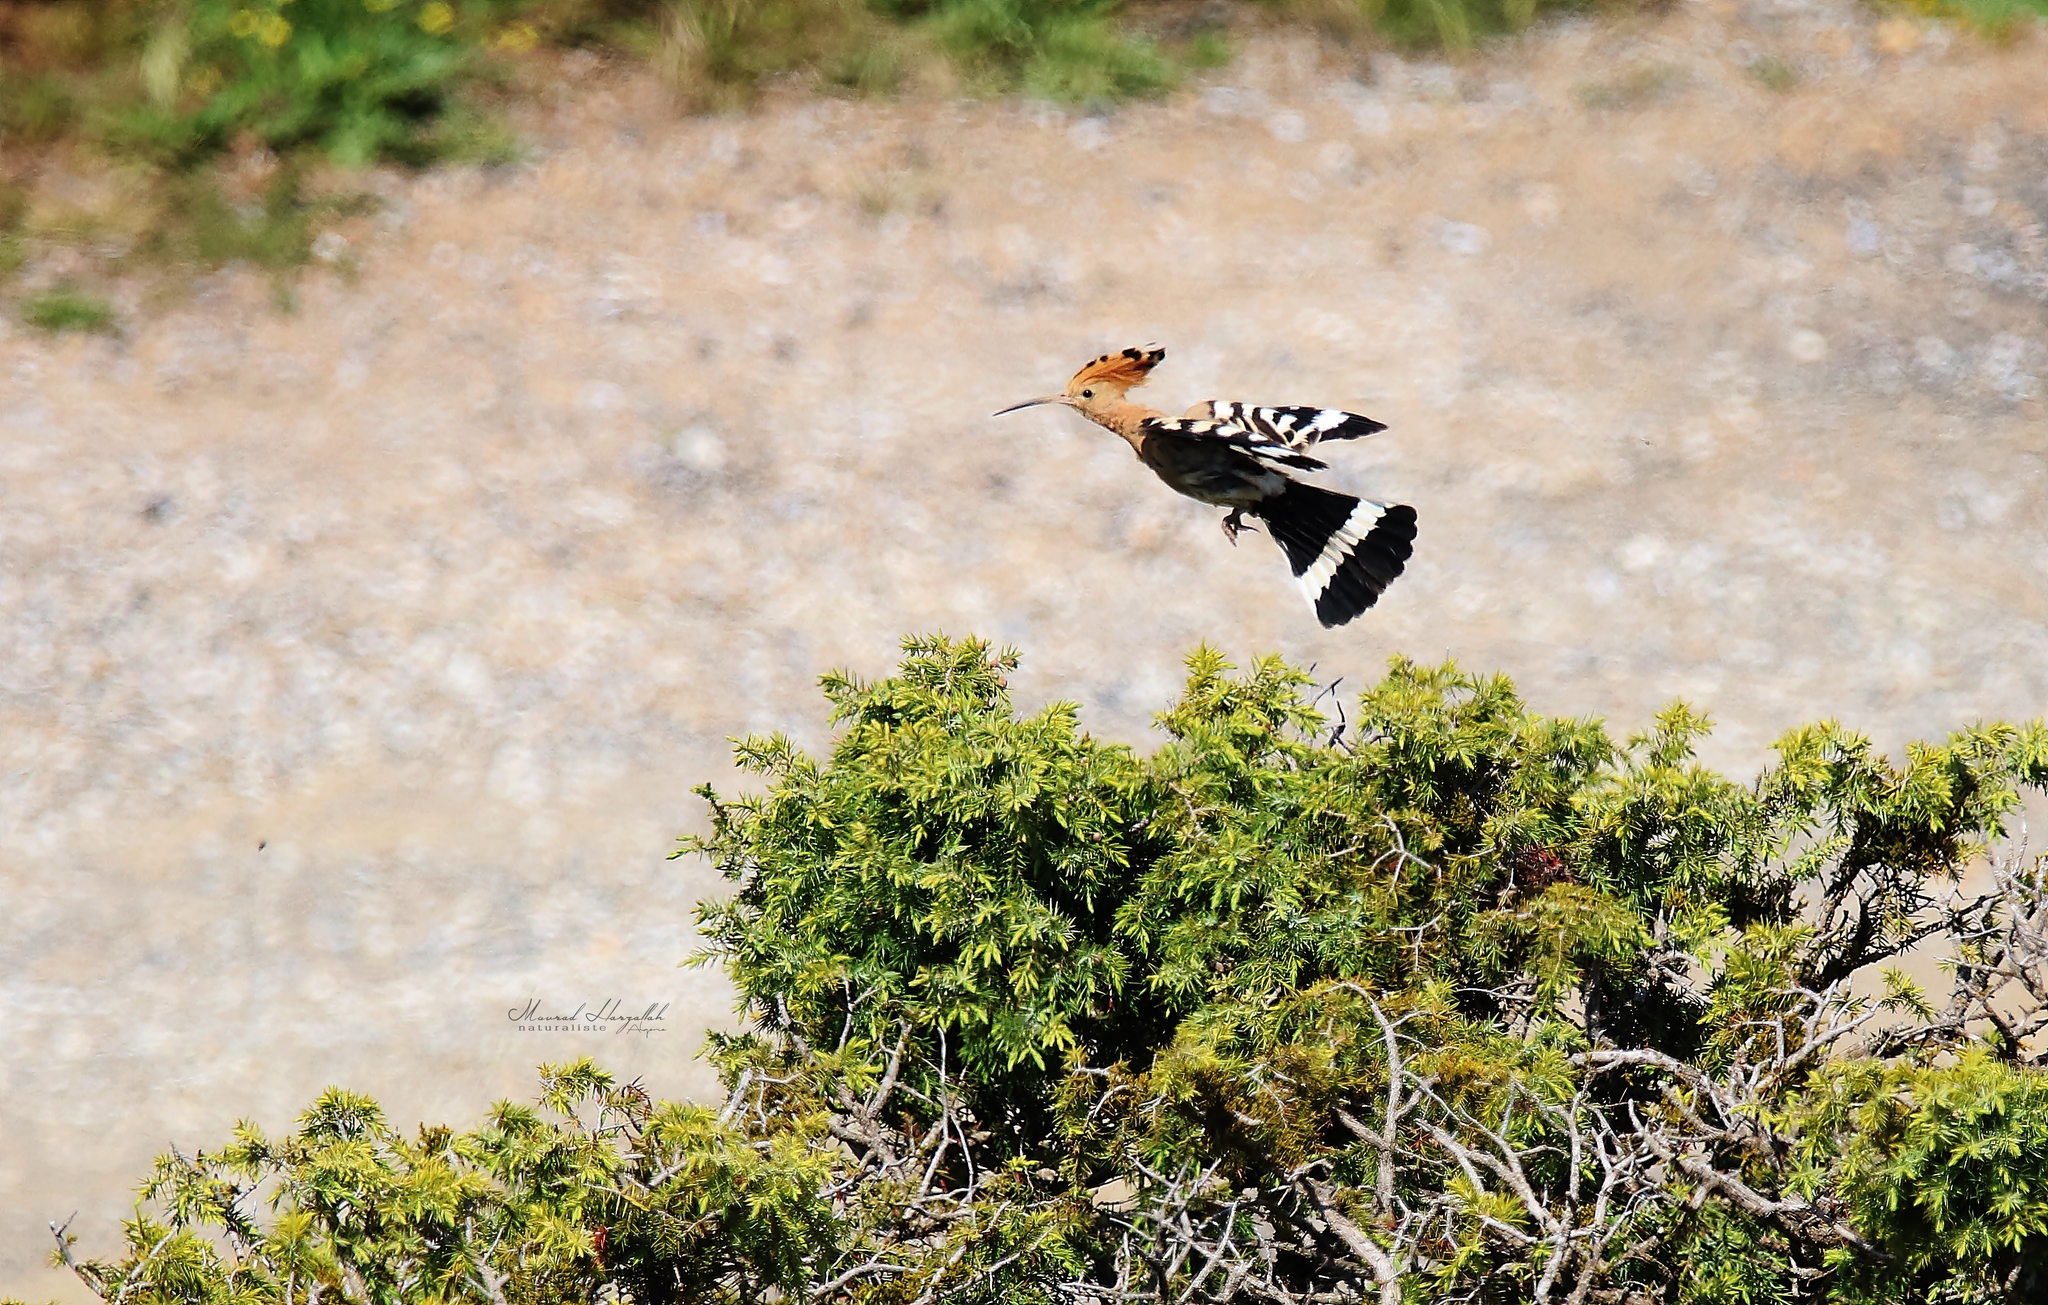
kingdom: Animalia
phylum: Chordata
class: Aves
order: Bucerotiformes
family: Upupidae
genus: Upupa
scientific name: Upupa epops
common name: Eurasian hoopoe
